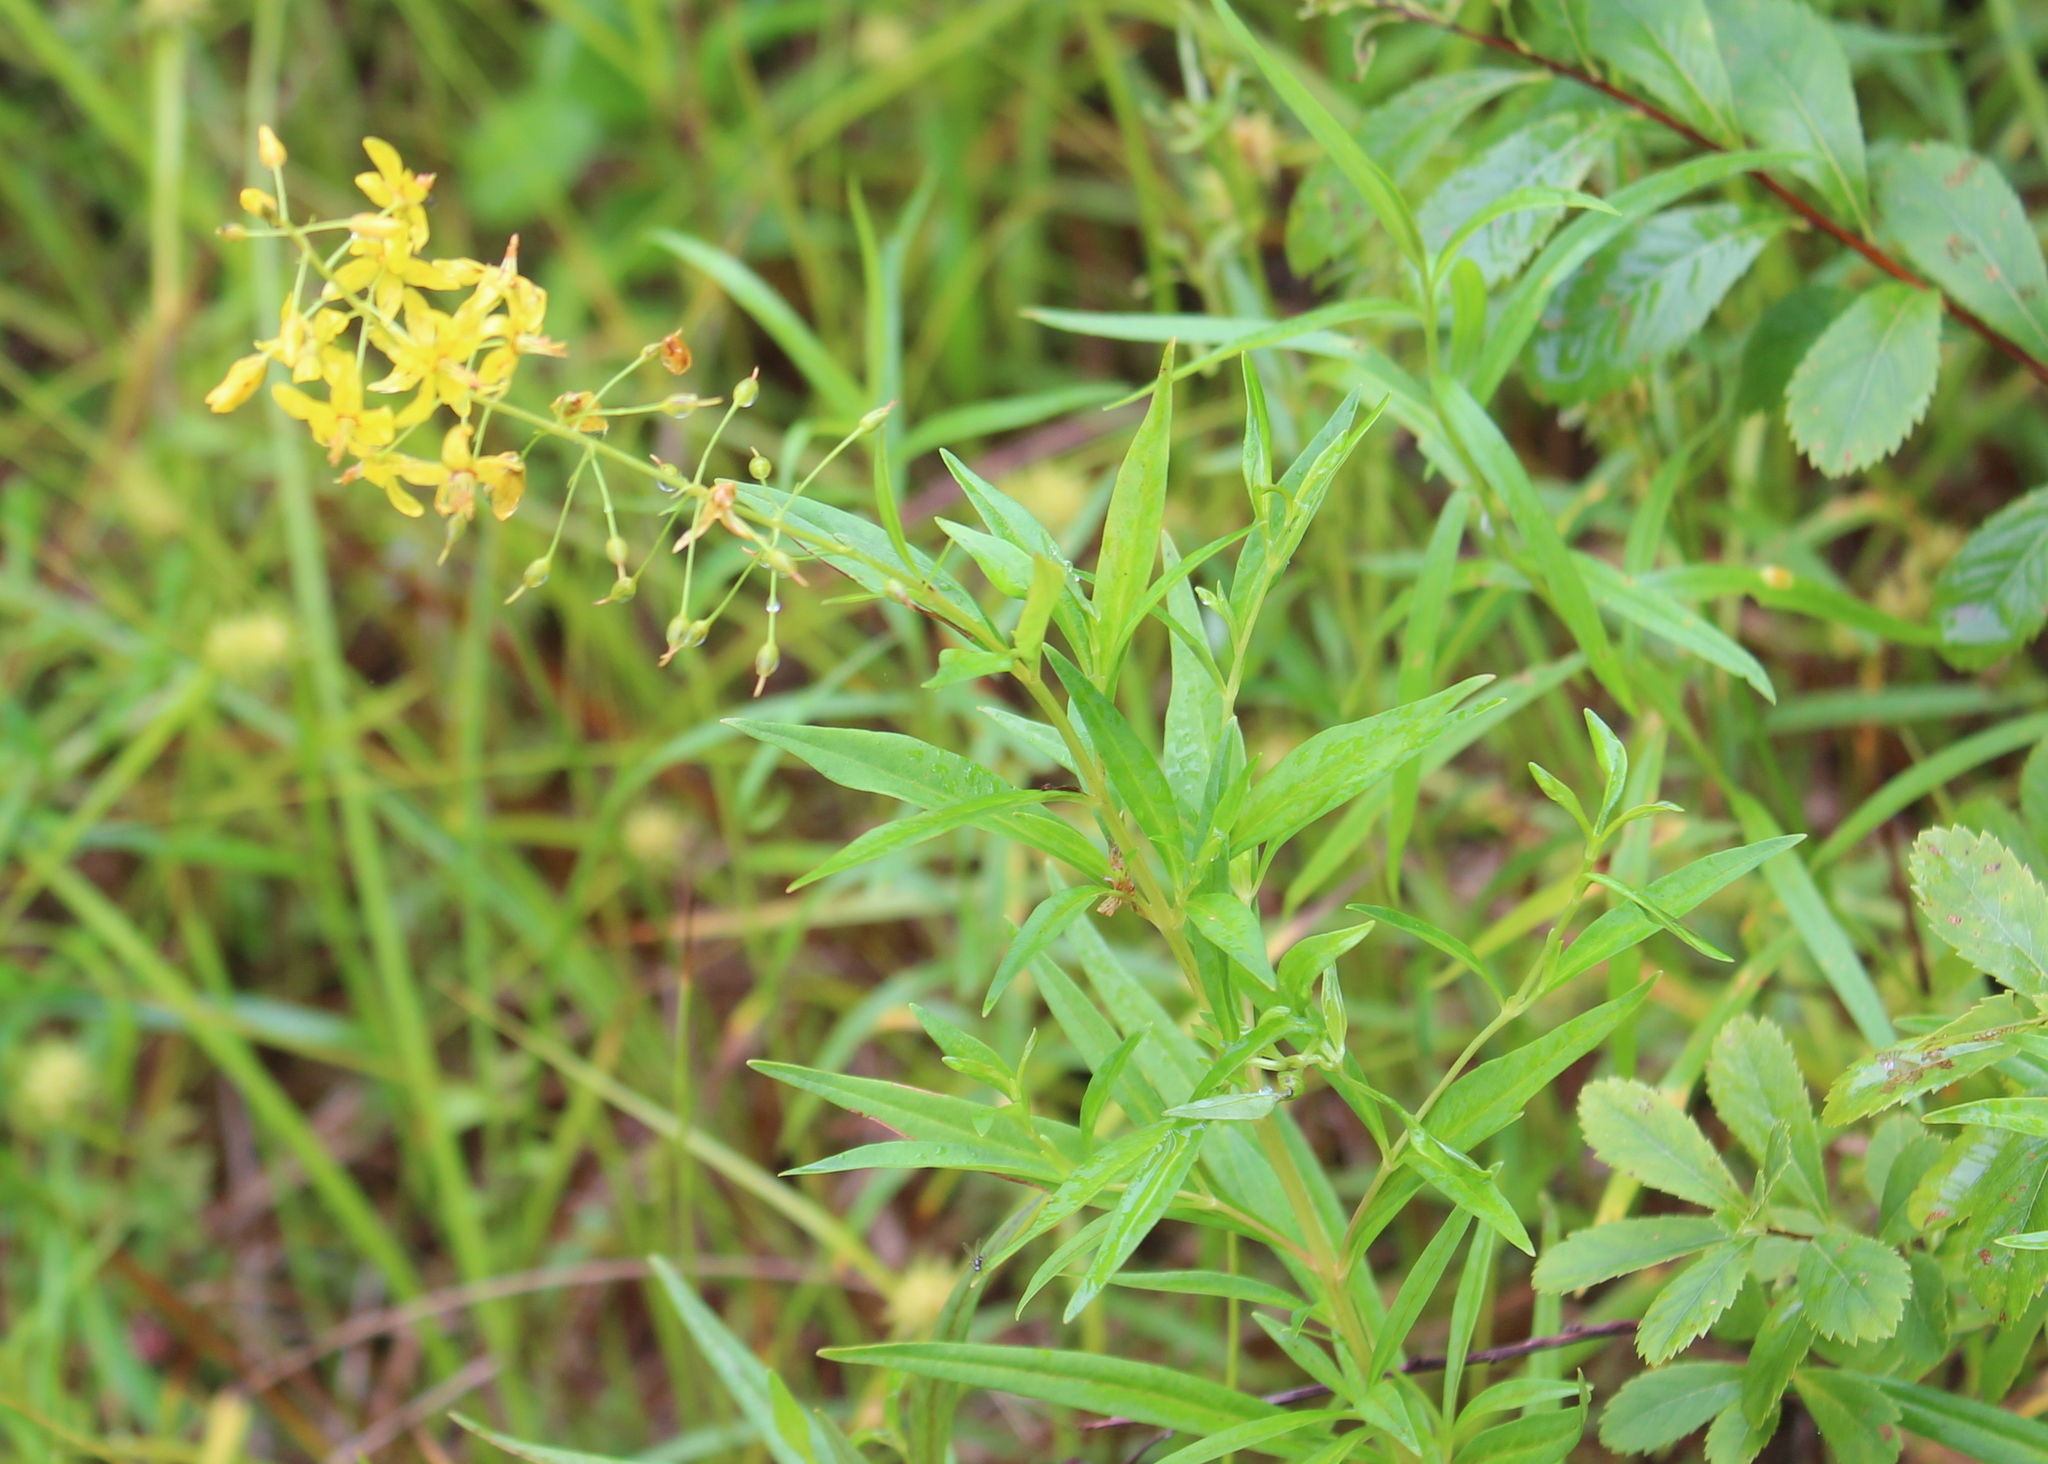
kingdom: Plantae
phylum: Tracheophyta
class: Magnoliopsida
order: Ericales
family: Primulaceae
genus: Lysimachia
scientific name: Lysimachia terrestris
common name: Lake loosestrife
